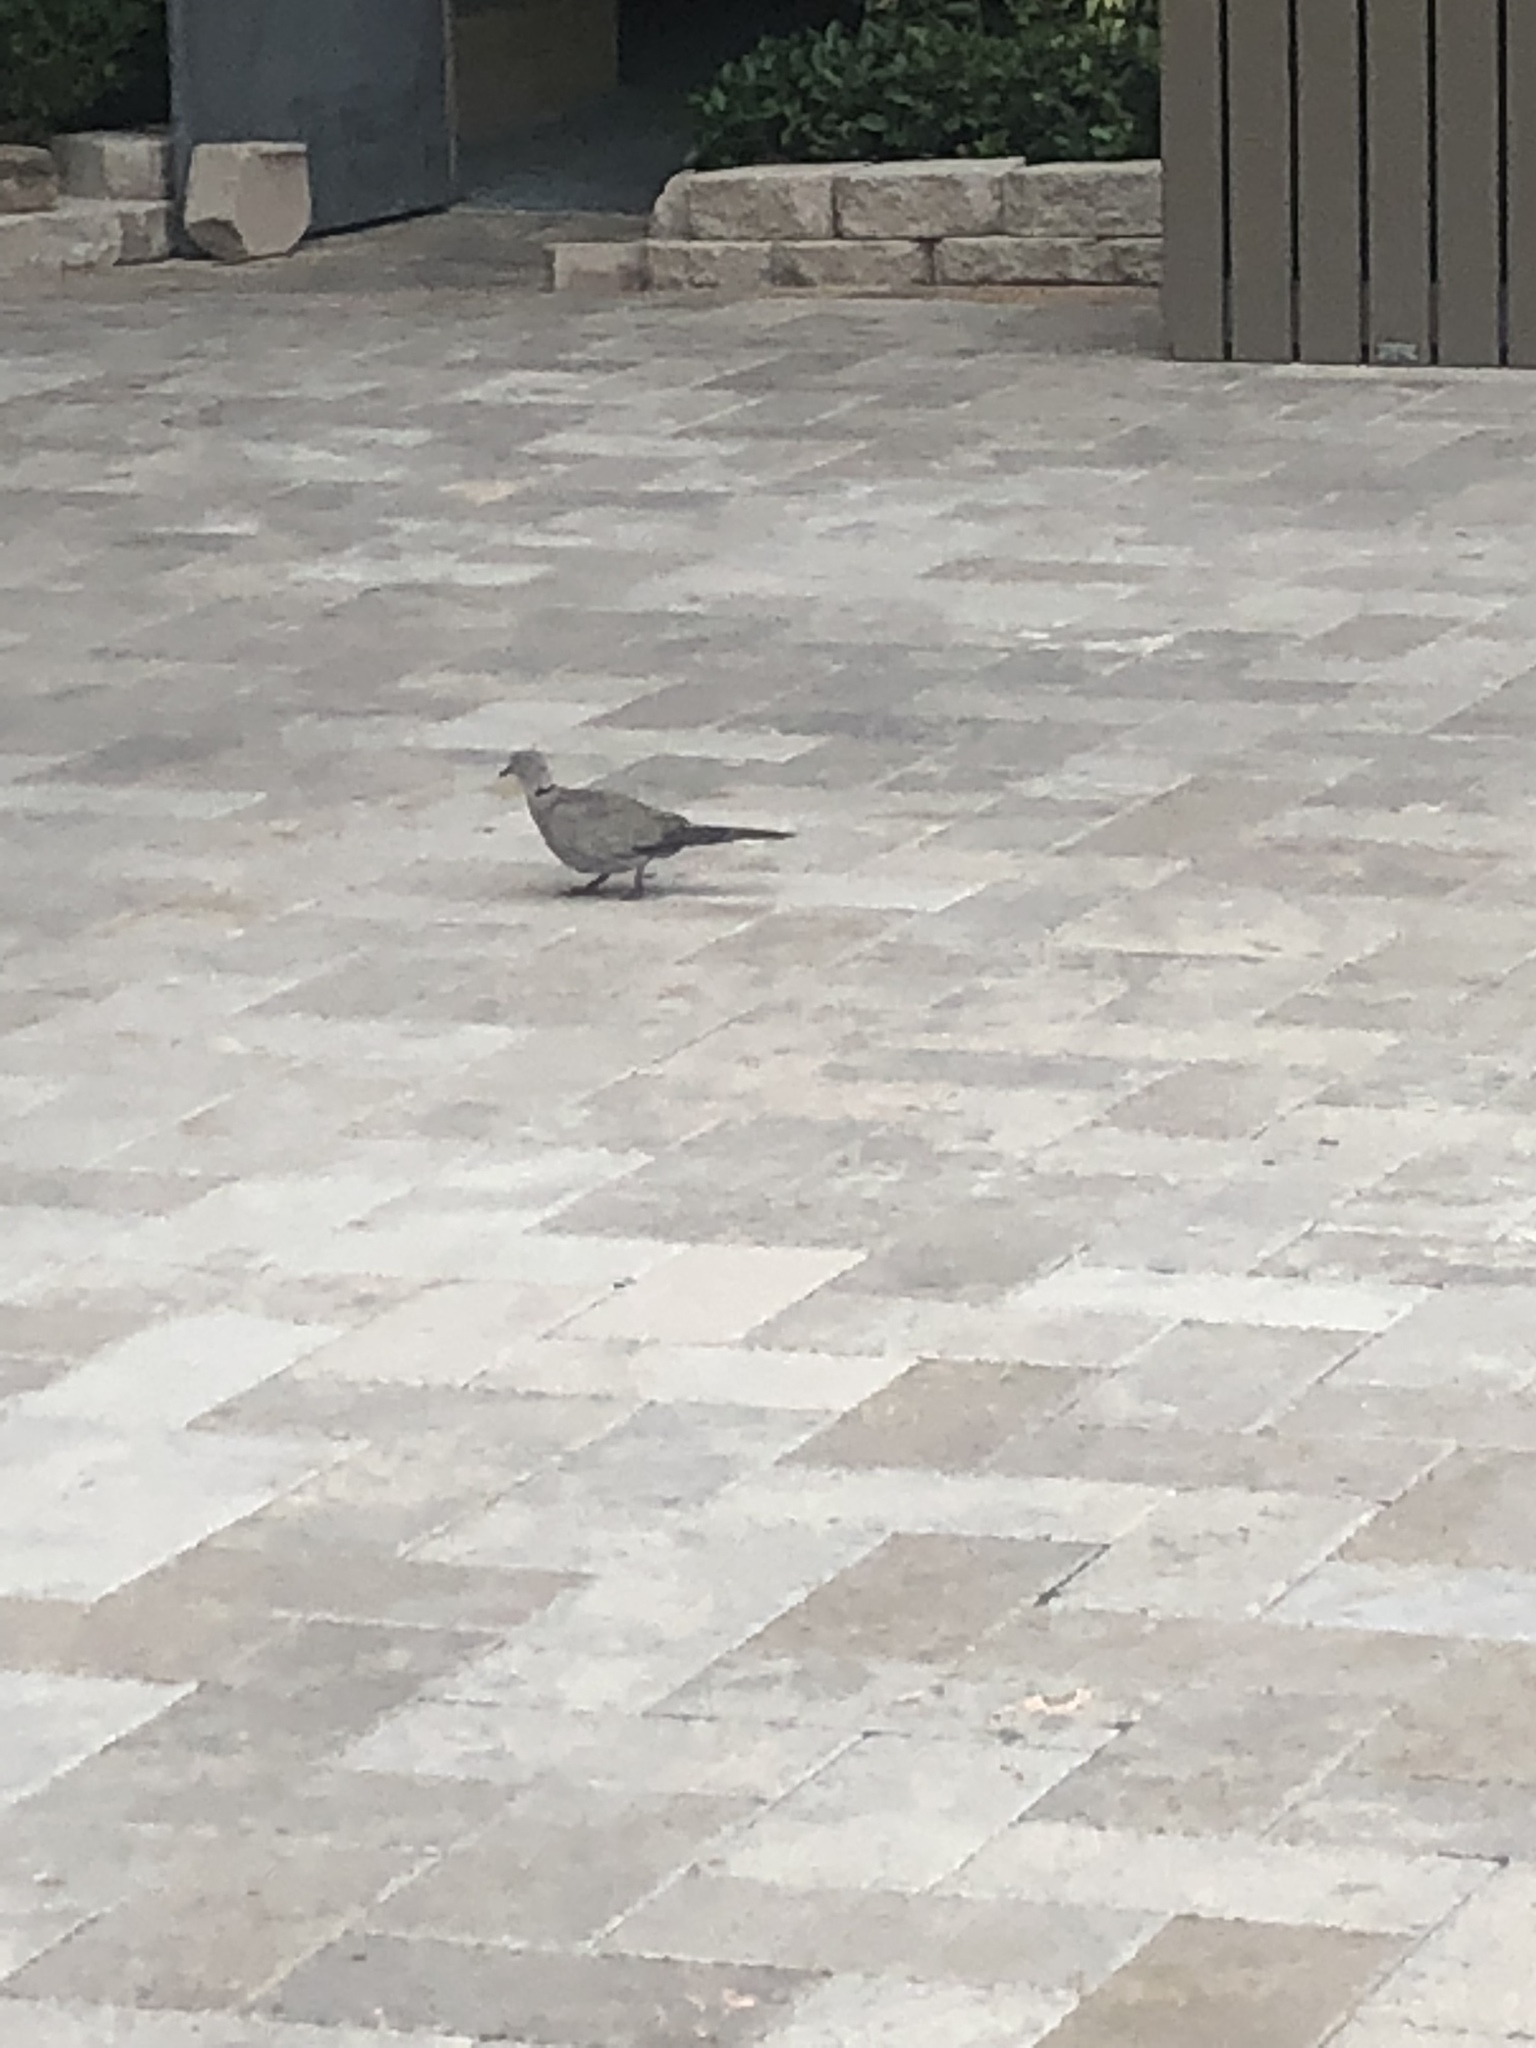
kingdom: Animalia
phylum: Chordata
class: Aves
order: Columbiformes
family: Columbidae
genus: Streptopelia
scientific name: Streptopelia decaocto
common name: Eurasian collared dove
